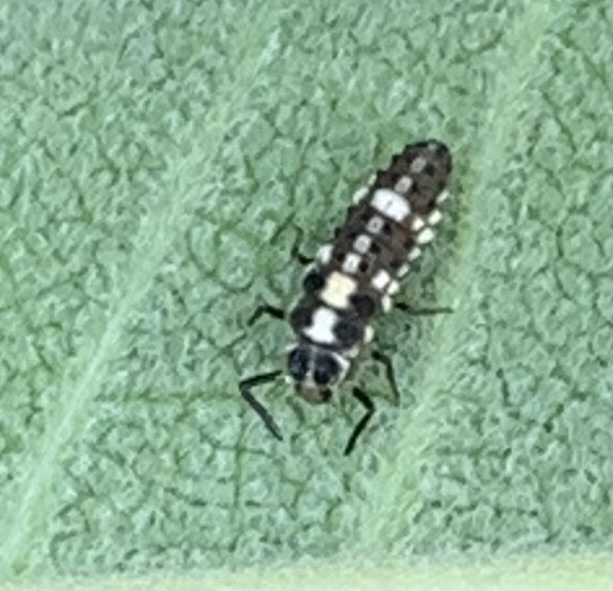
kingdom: Animalia
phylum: Arthropoda
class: Insecta
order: Coleoptera
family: Coccinellidae
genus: Propylaea
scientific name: Propylaea quatuordecimpunctata
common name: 14-spotted ladybird beetle
